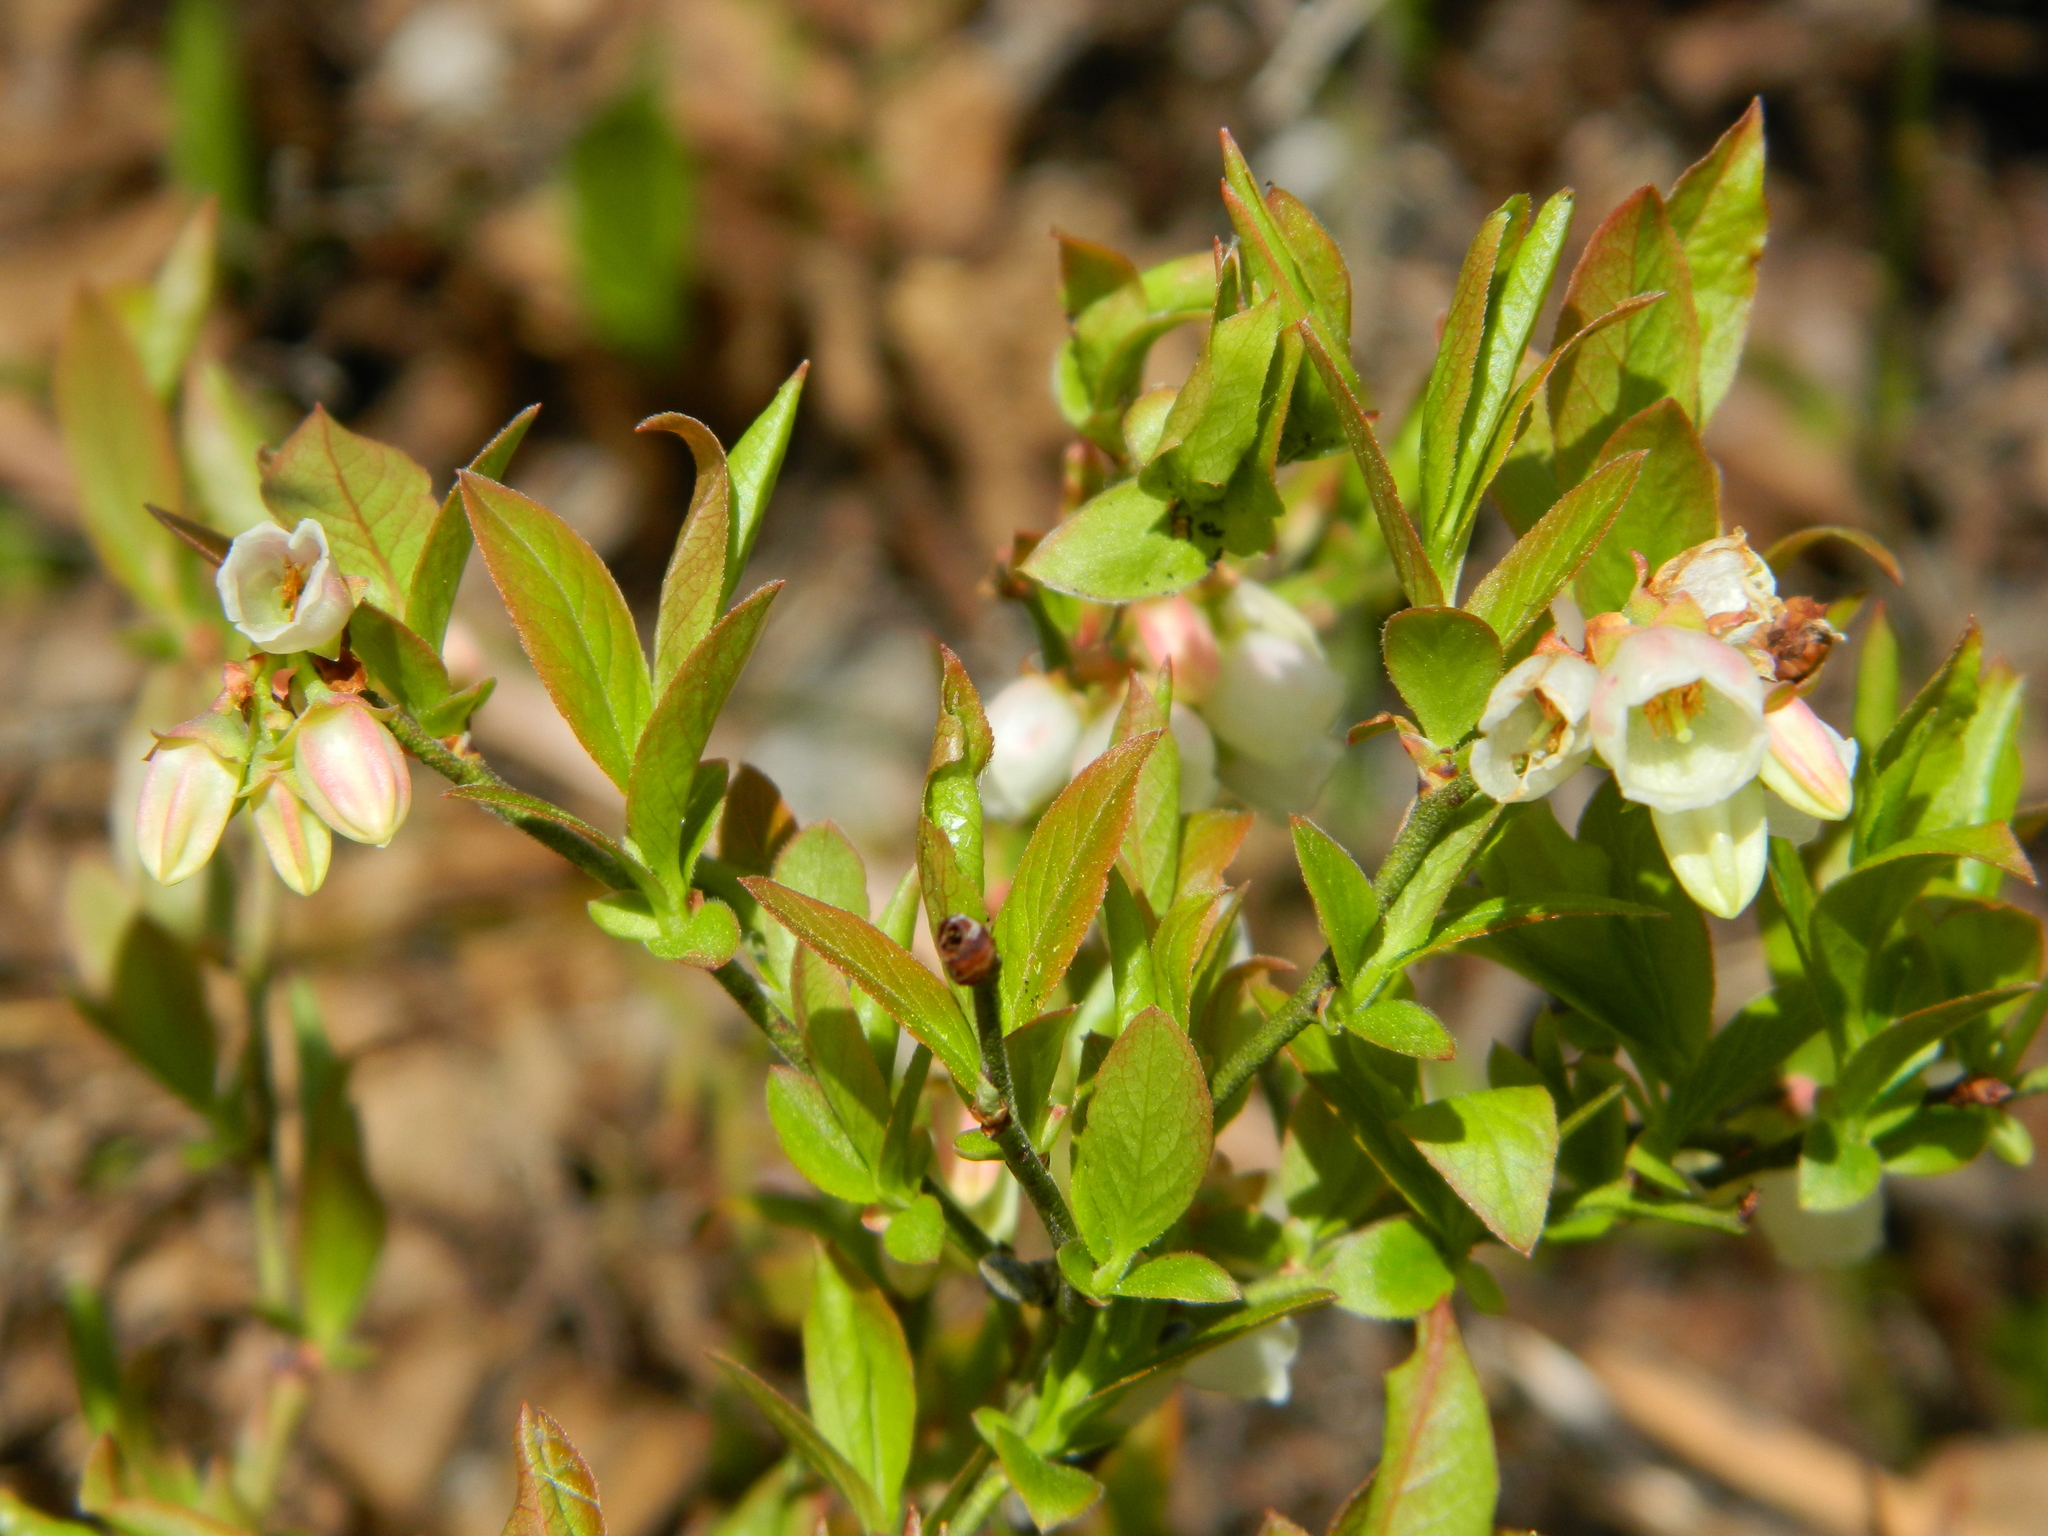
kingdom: Plantae
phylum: Tracheophyta
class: Magnoliopsida
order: Ericales
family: Ericaceae
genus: Vaccinium
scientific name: Vaccinium angustifolium
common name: Early lowbush blueberry
